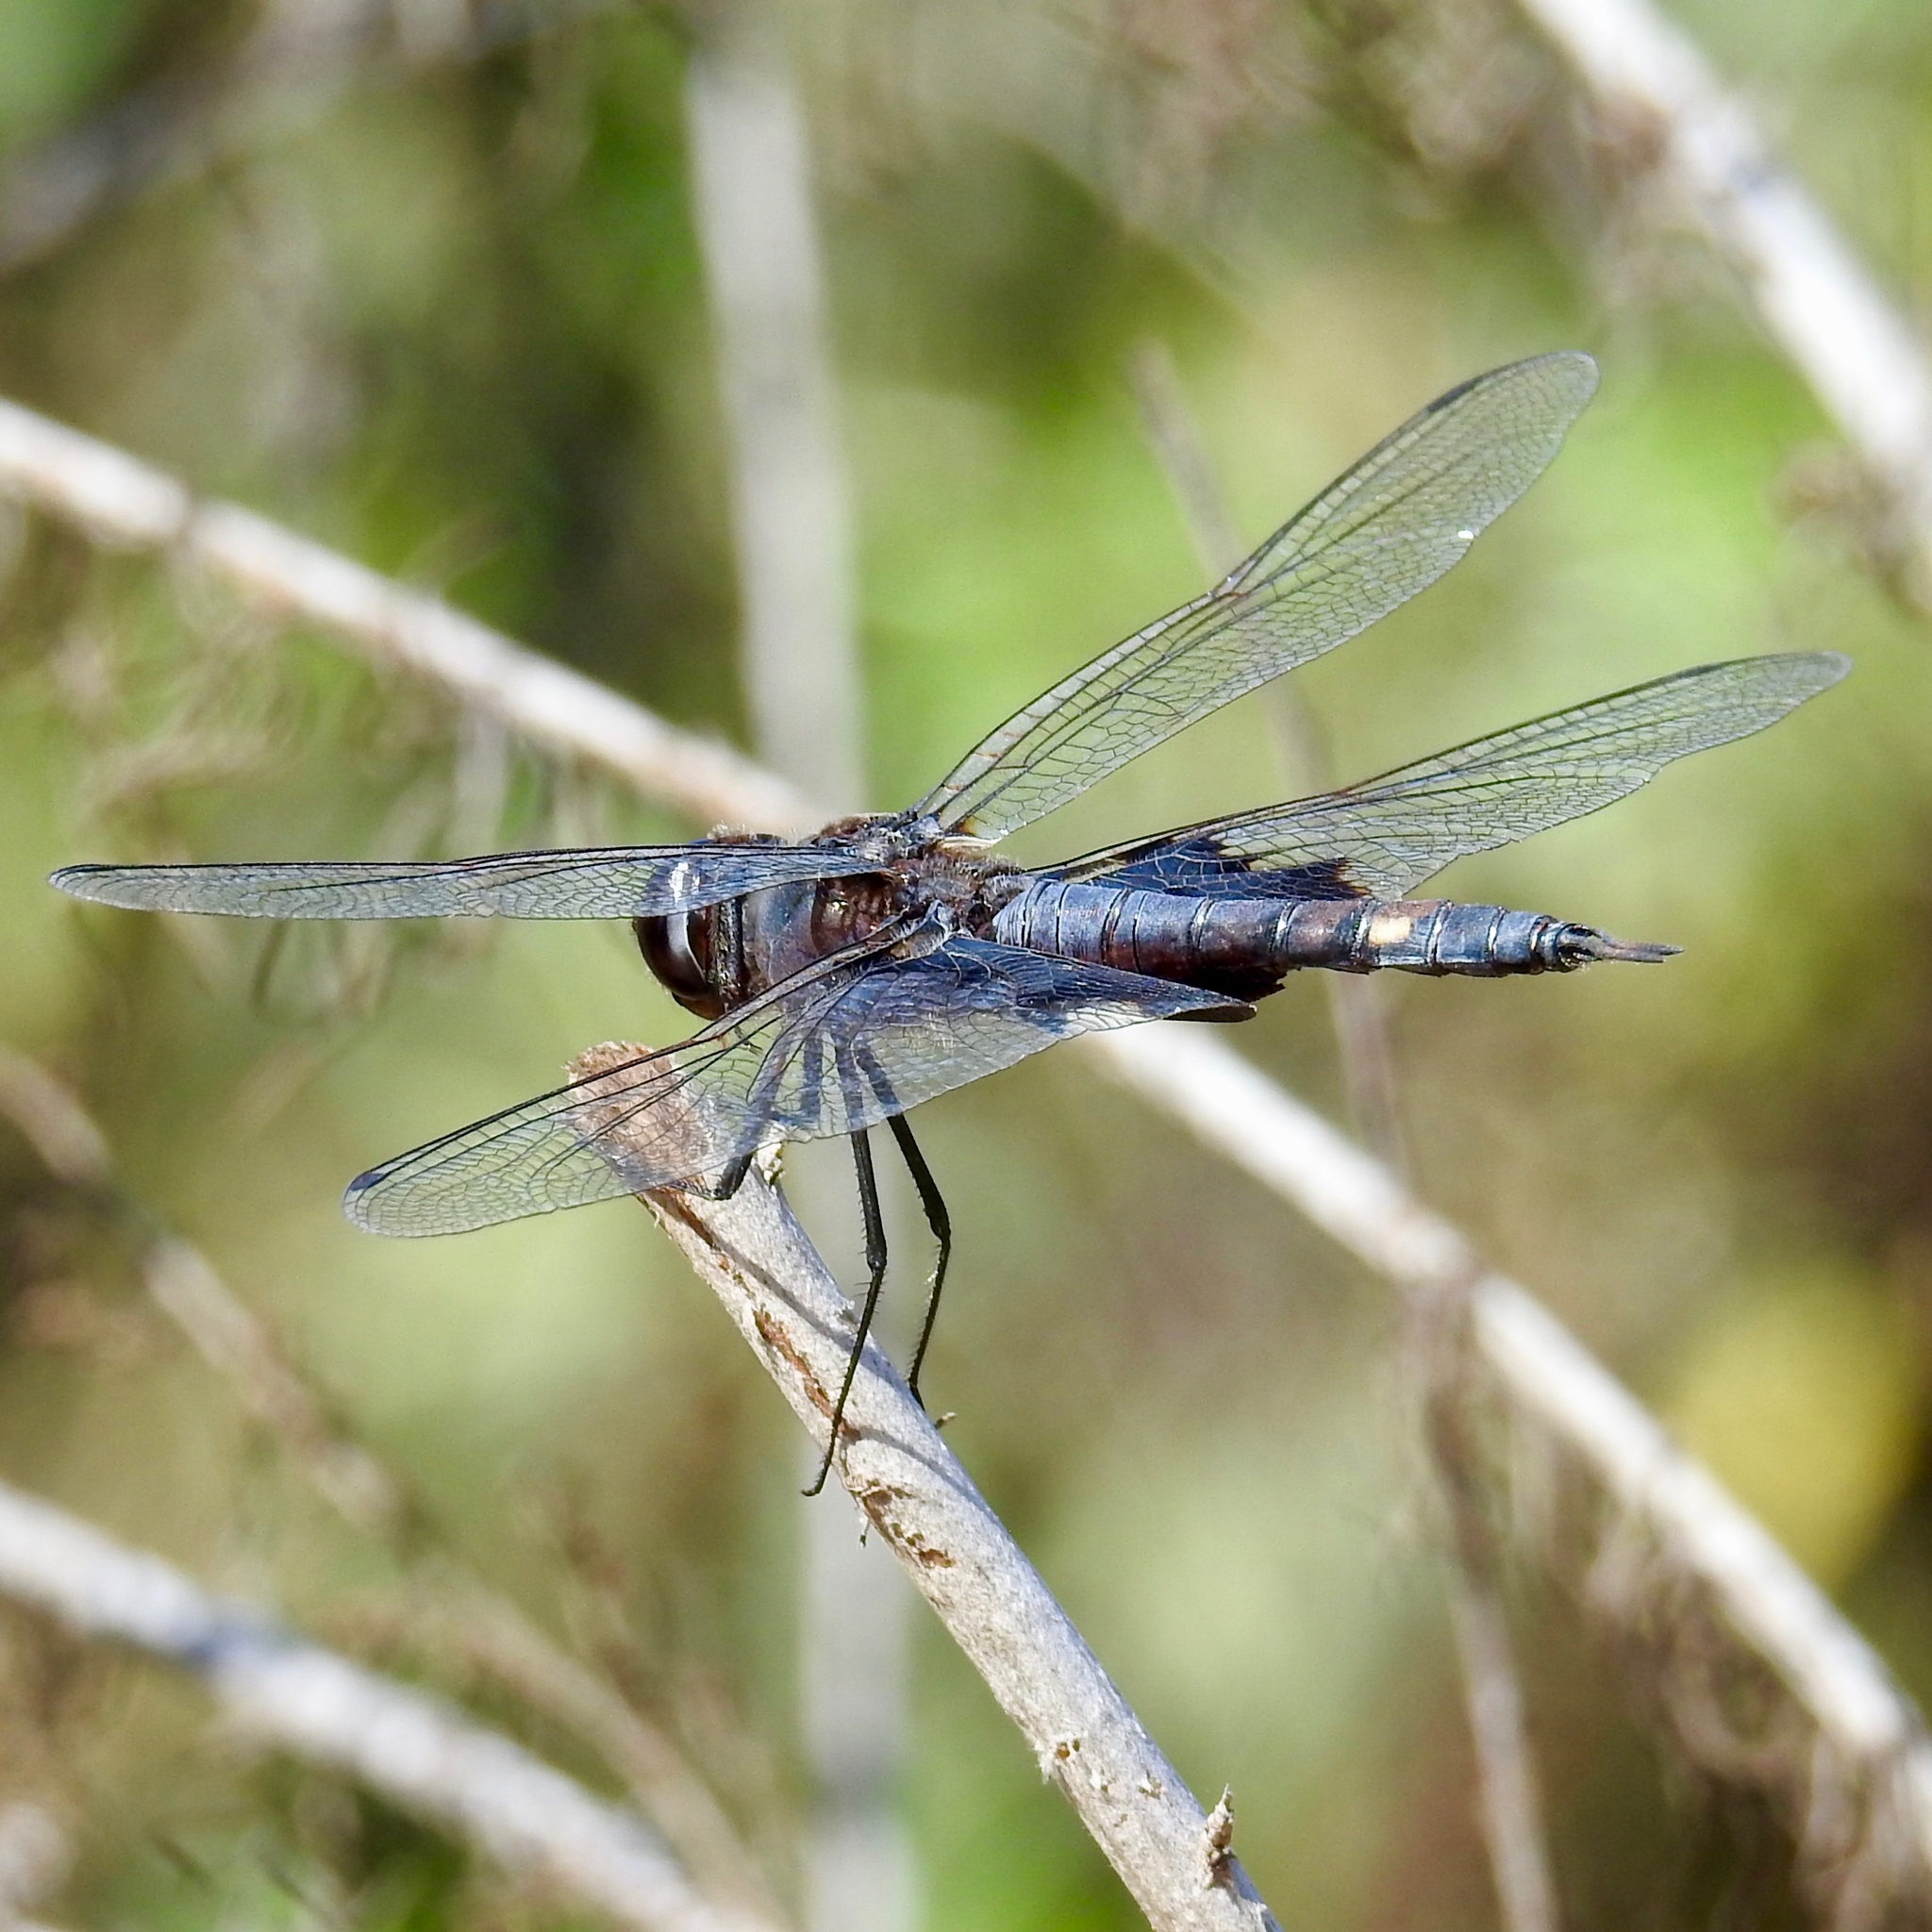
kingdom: Animalia
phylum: Arthropoda
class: Insecta
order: Odonata
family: Libellulidae
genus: Tramea
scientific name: Tramea lacerata
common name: Black saddlebags
